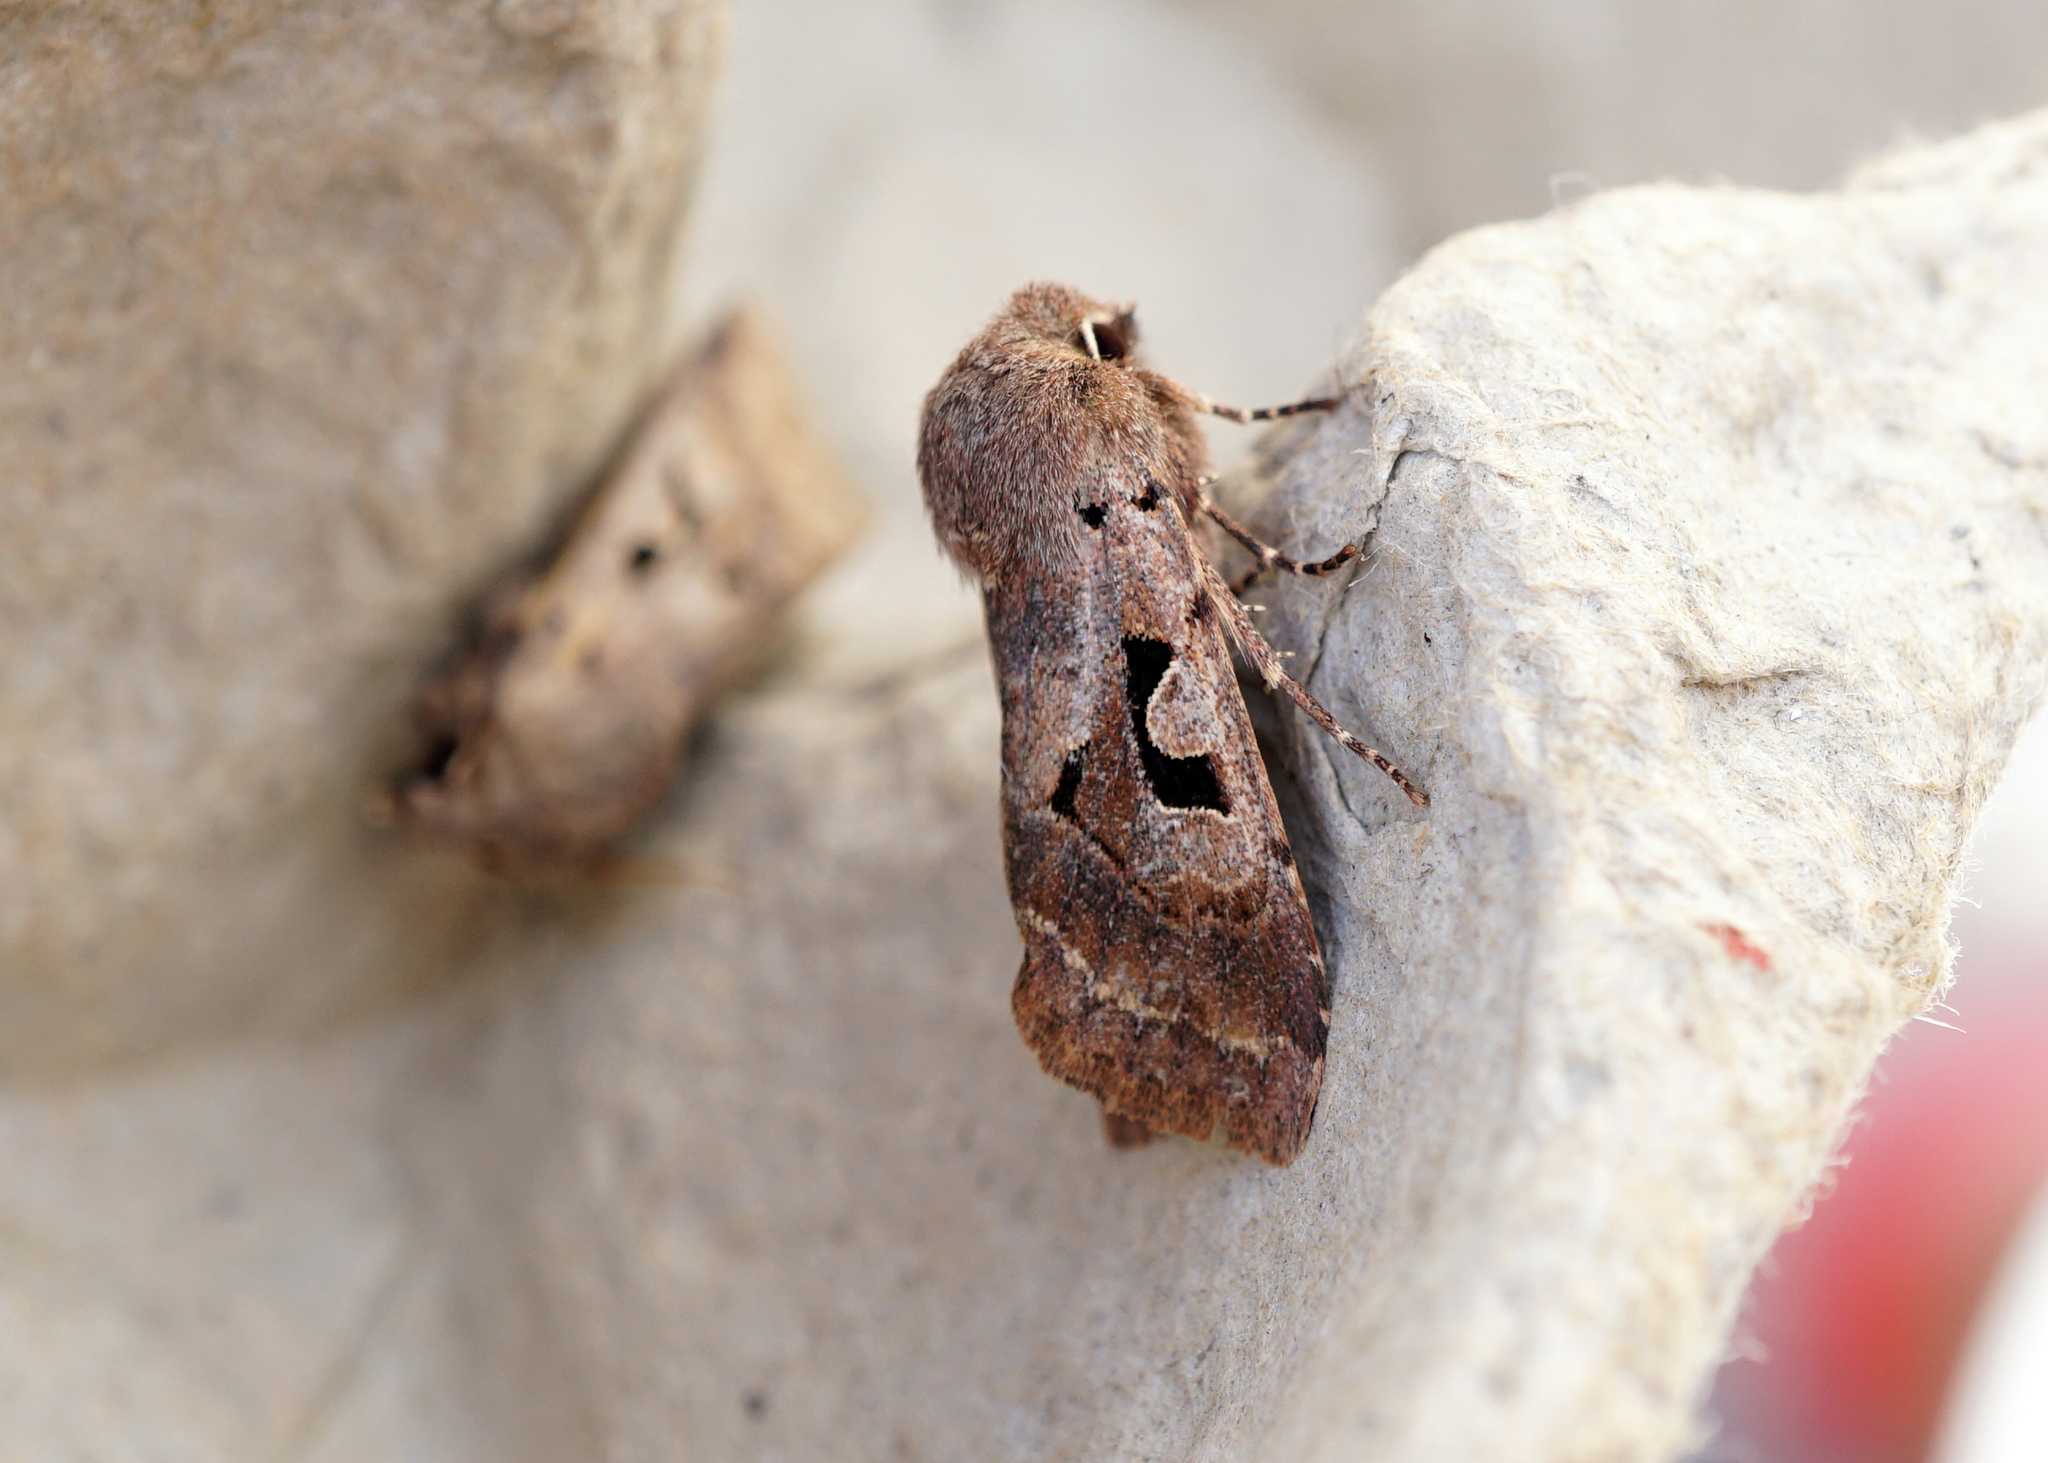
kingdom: Animalia
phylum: Arthropoda
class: Insecta
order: Lepidoptera
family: Noctuidae
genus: Orthosia
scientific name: Orthosia gothica
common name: Hebrew character
